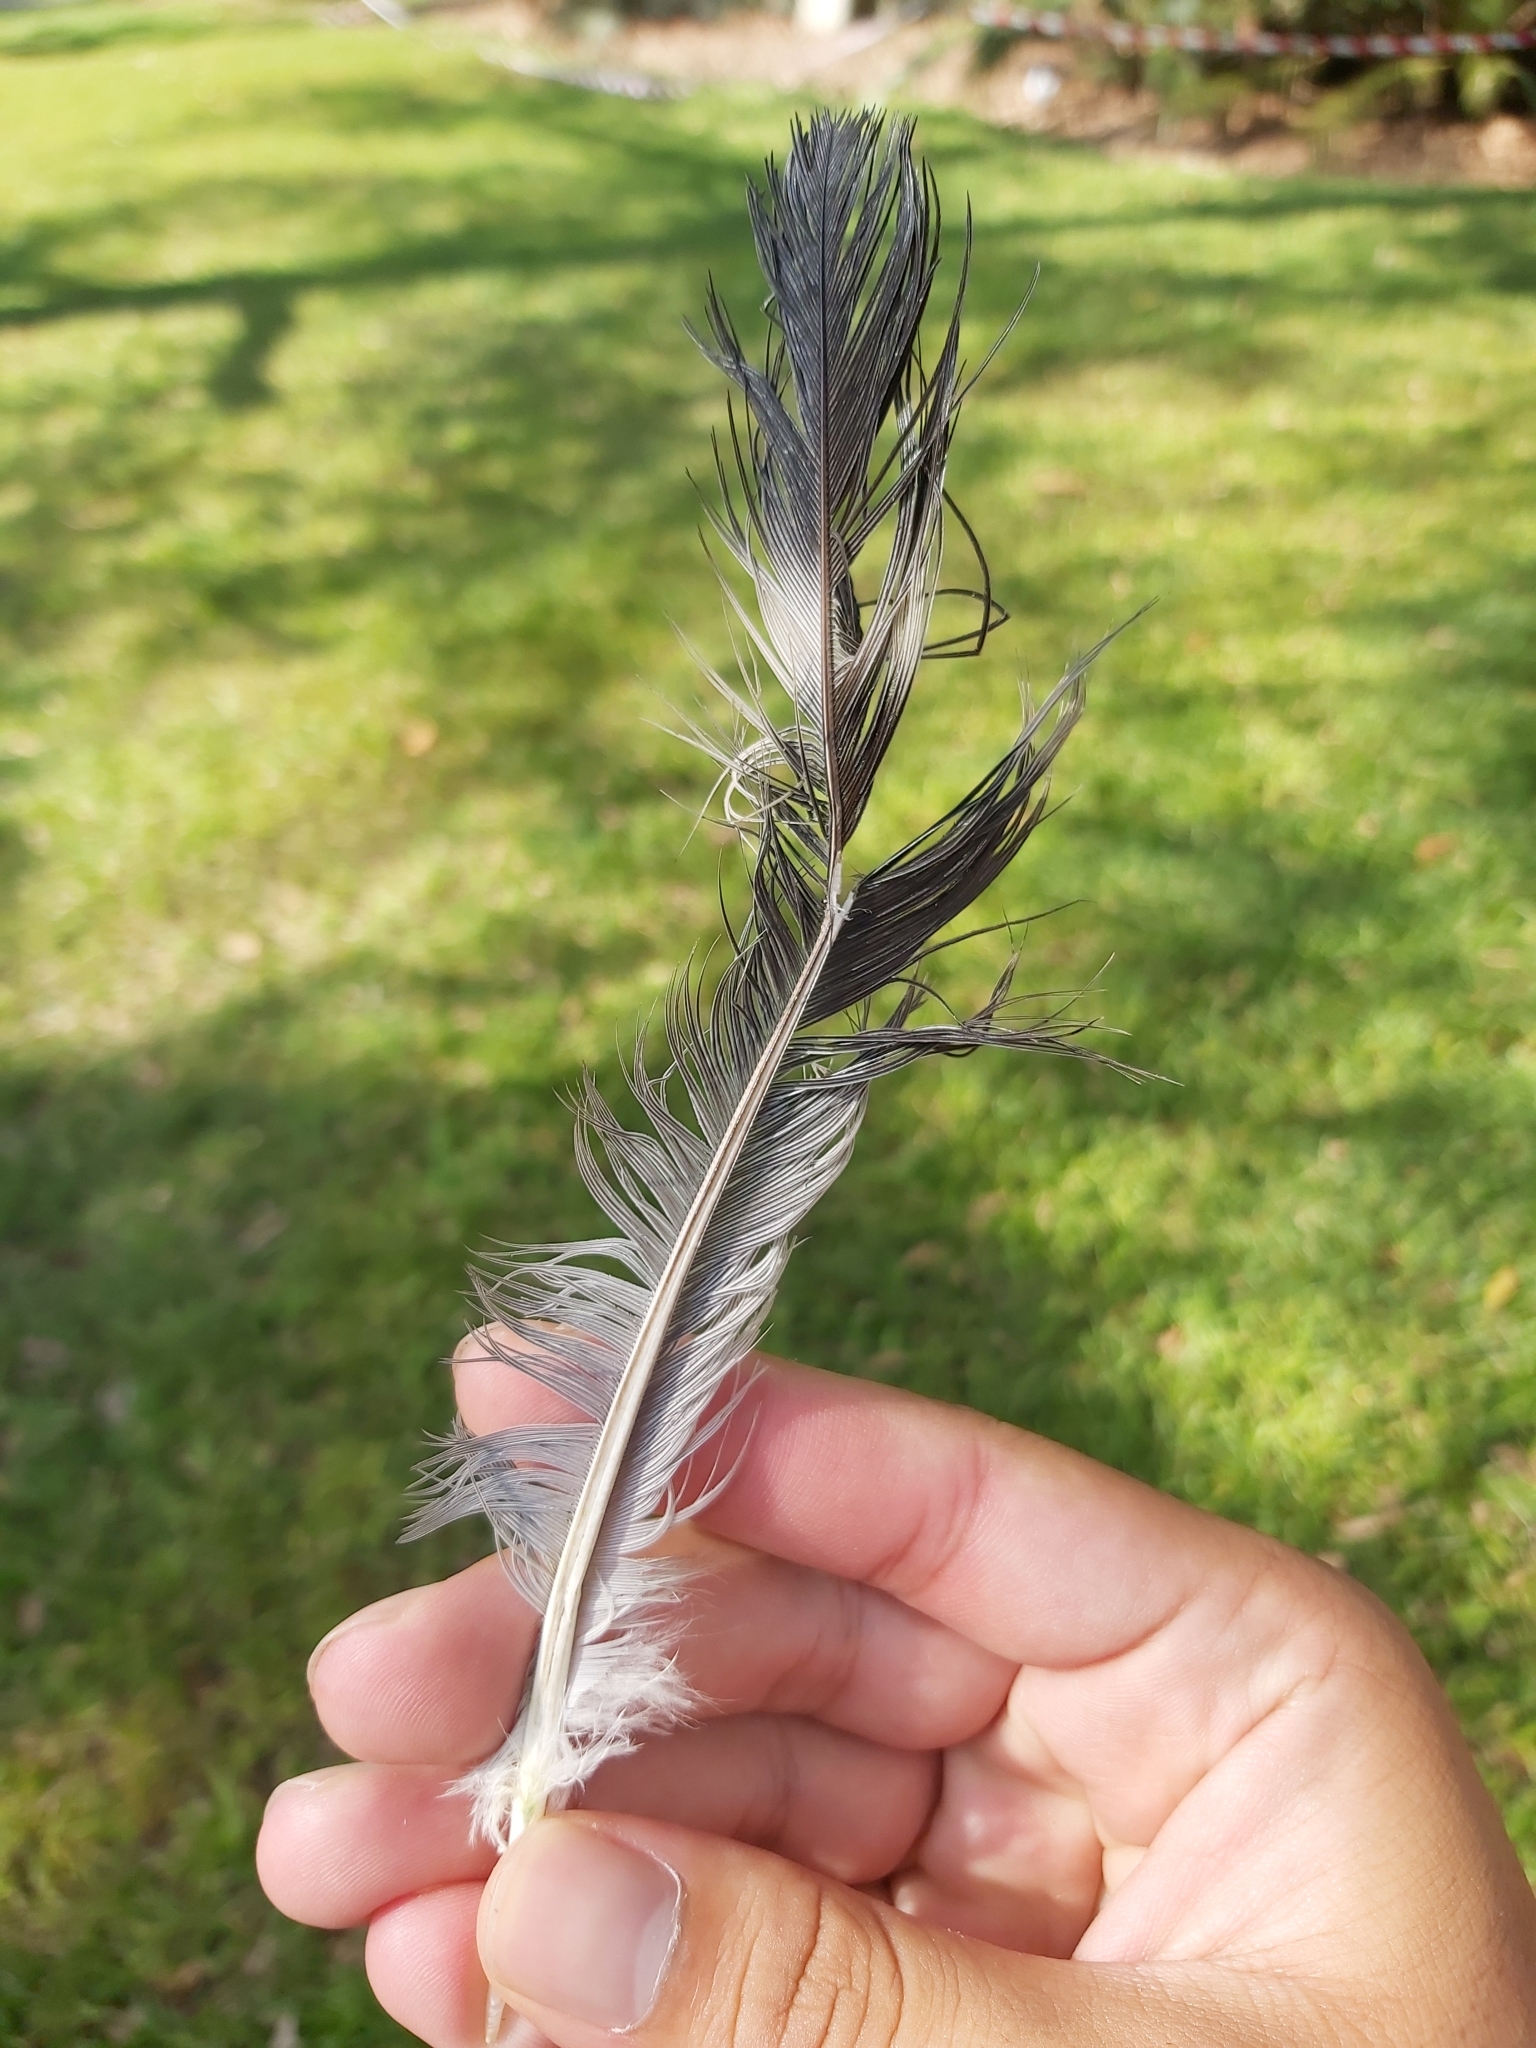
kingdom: Animalia
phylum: Chordata
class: Aves
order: Columbiformes
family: Columbidae
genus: Lopholaimus
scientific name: Lopholaimus antarcticus
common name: Topknot pigeon
